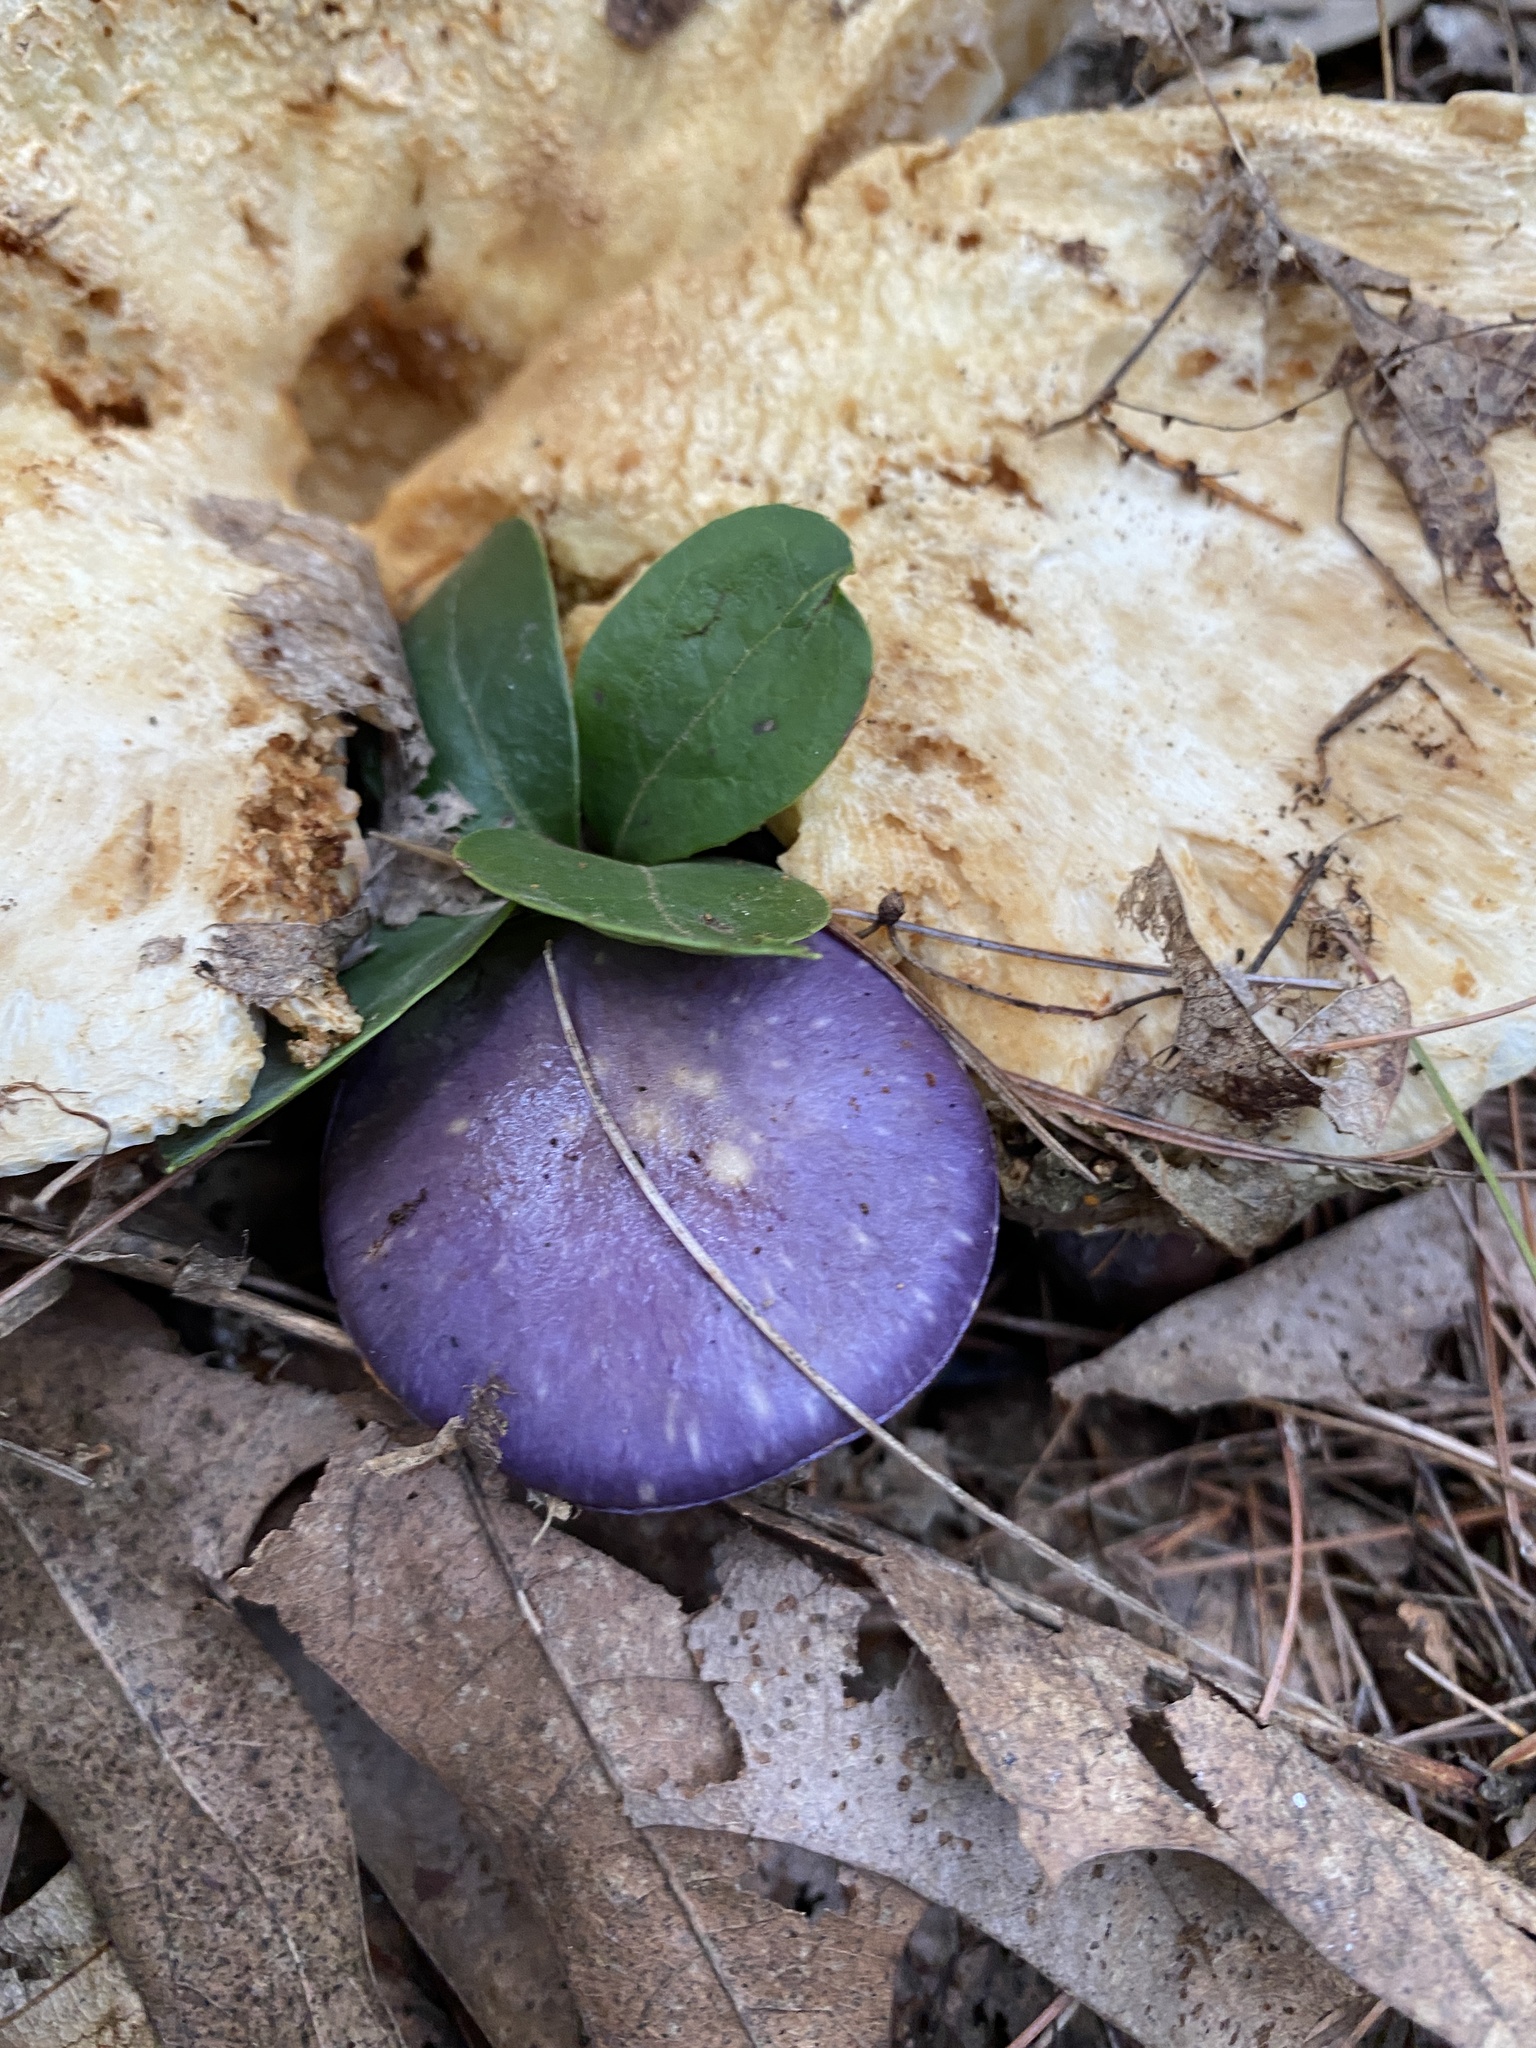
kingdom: Fungi
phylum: Basidiomycota
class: Agaricomycetes
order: Agaricales
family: Cortinariaceae
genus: Cortinarius
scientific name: Cortinarius iodes
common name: Viscid violet cort
